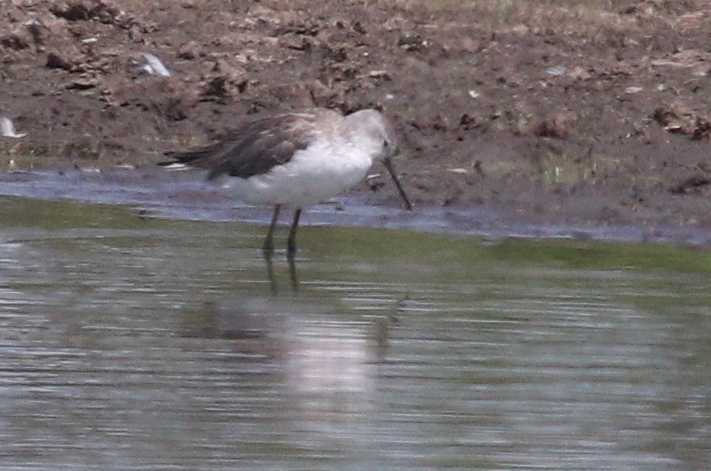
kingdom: Animalia
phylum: Chordata
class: Aves
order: Charadriiformes
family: Scolopacidae
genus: Tringa
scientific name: Tringa stagnatilis
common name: Marsh sandpiper
